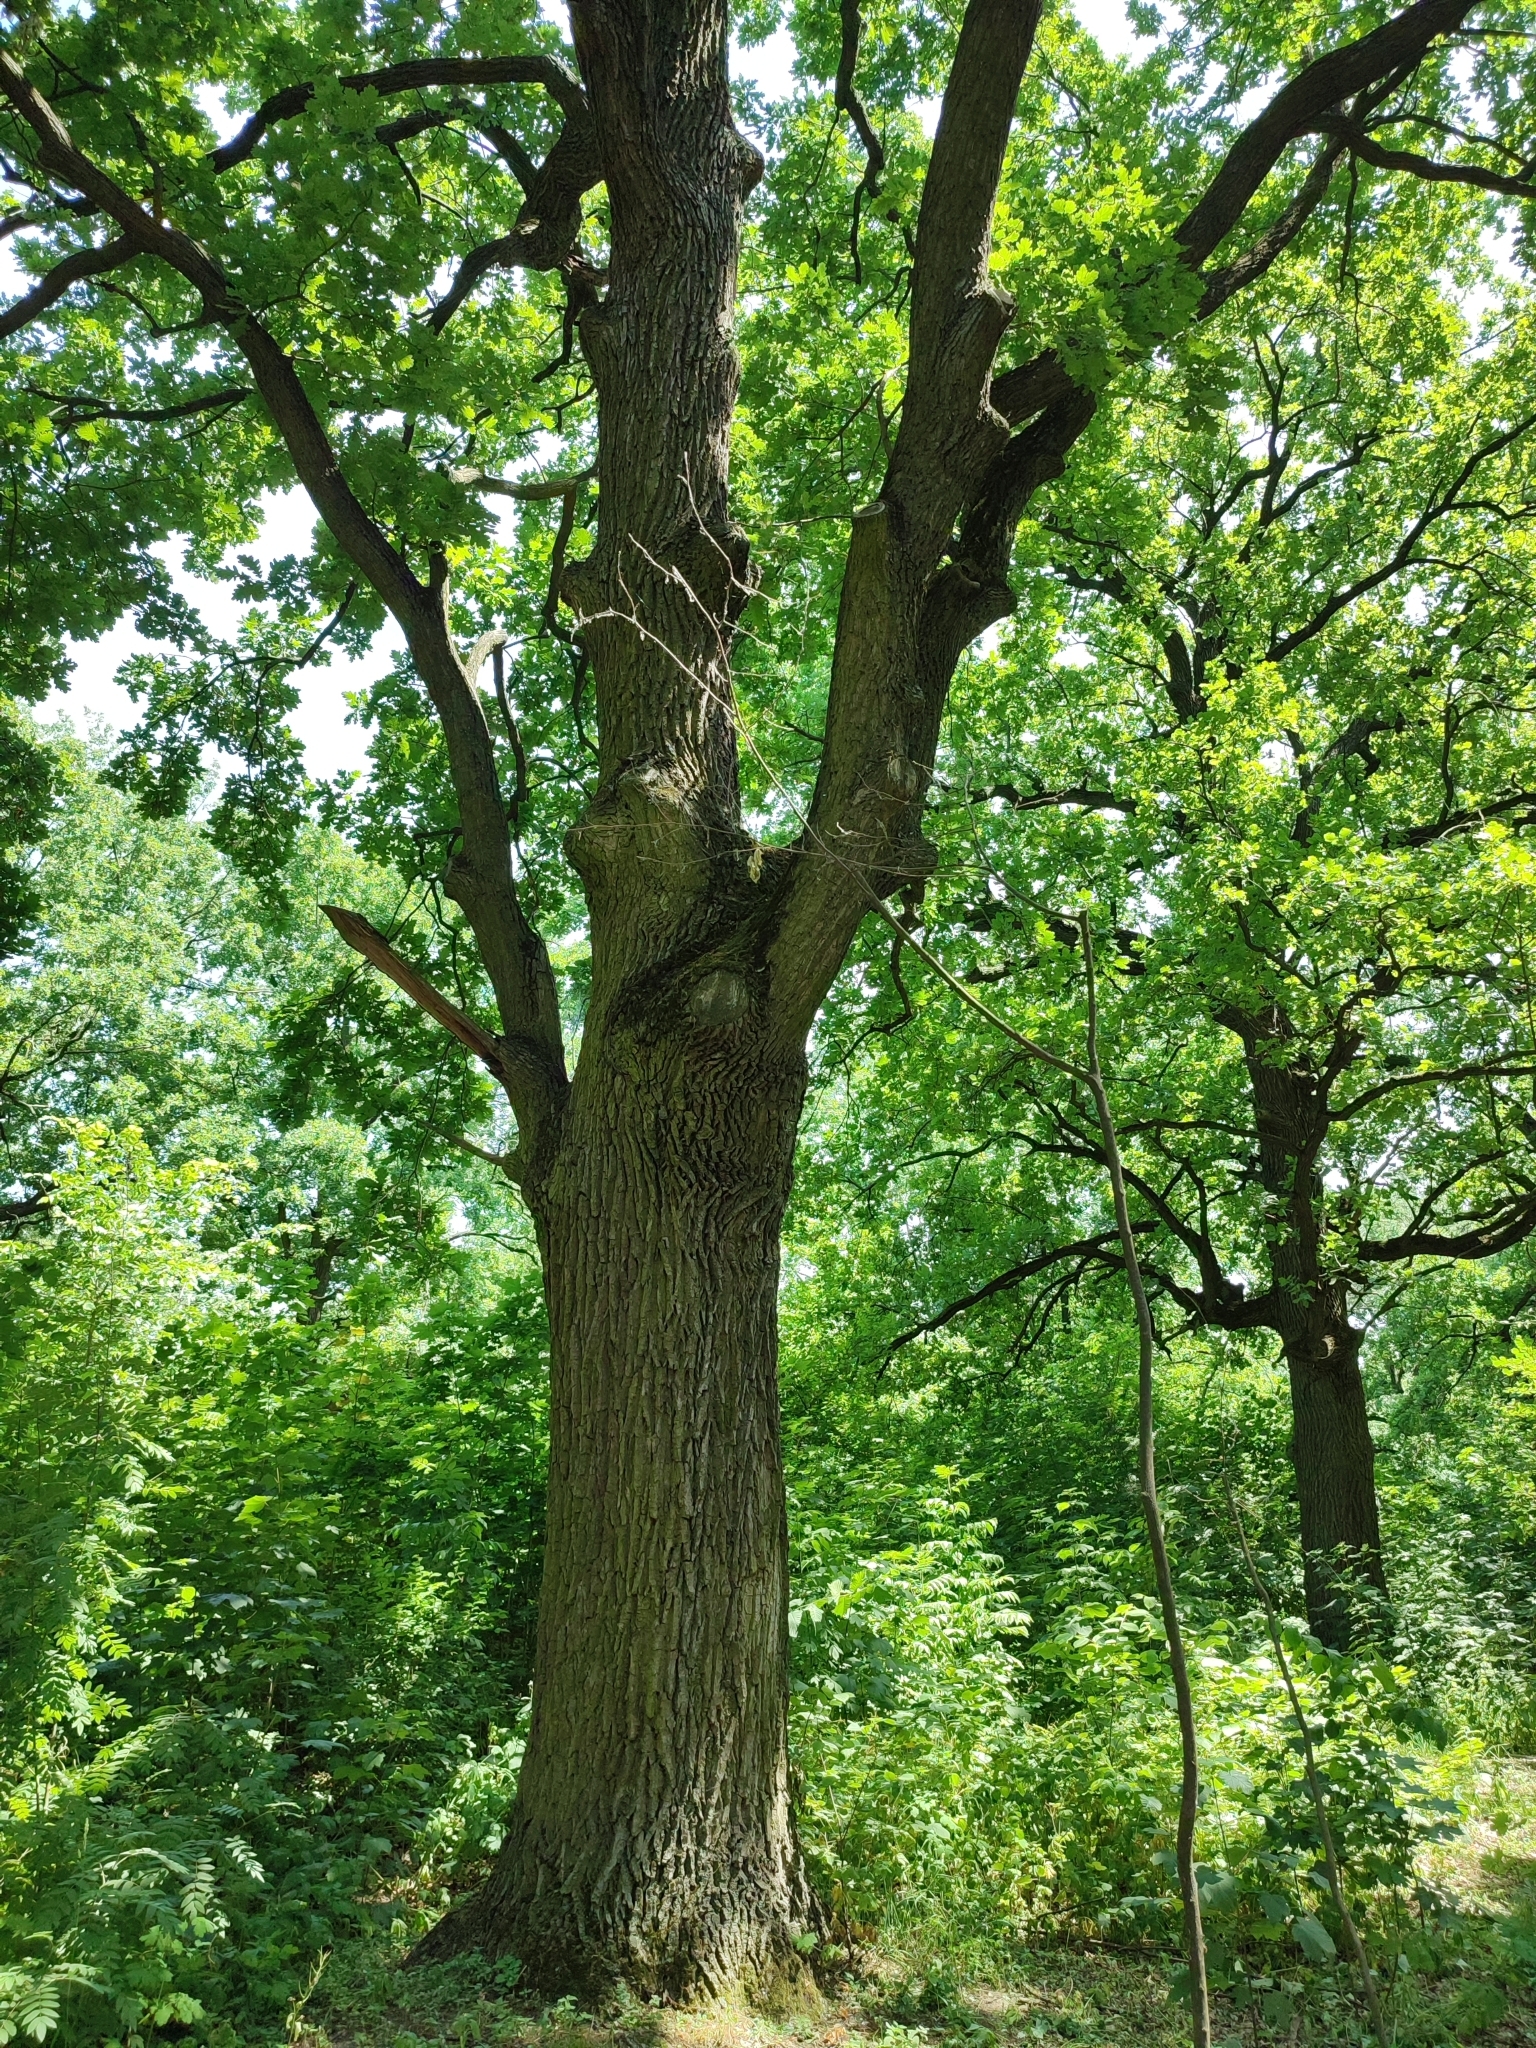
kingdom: Plantae
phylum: Tracheophyta
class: Magnoliopsida
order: Fagales
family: Fagaceae
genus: Quercus
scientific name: Quercus robur
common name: Pedunculate oak
